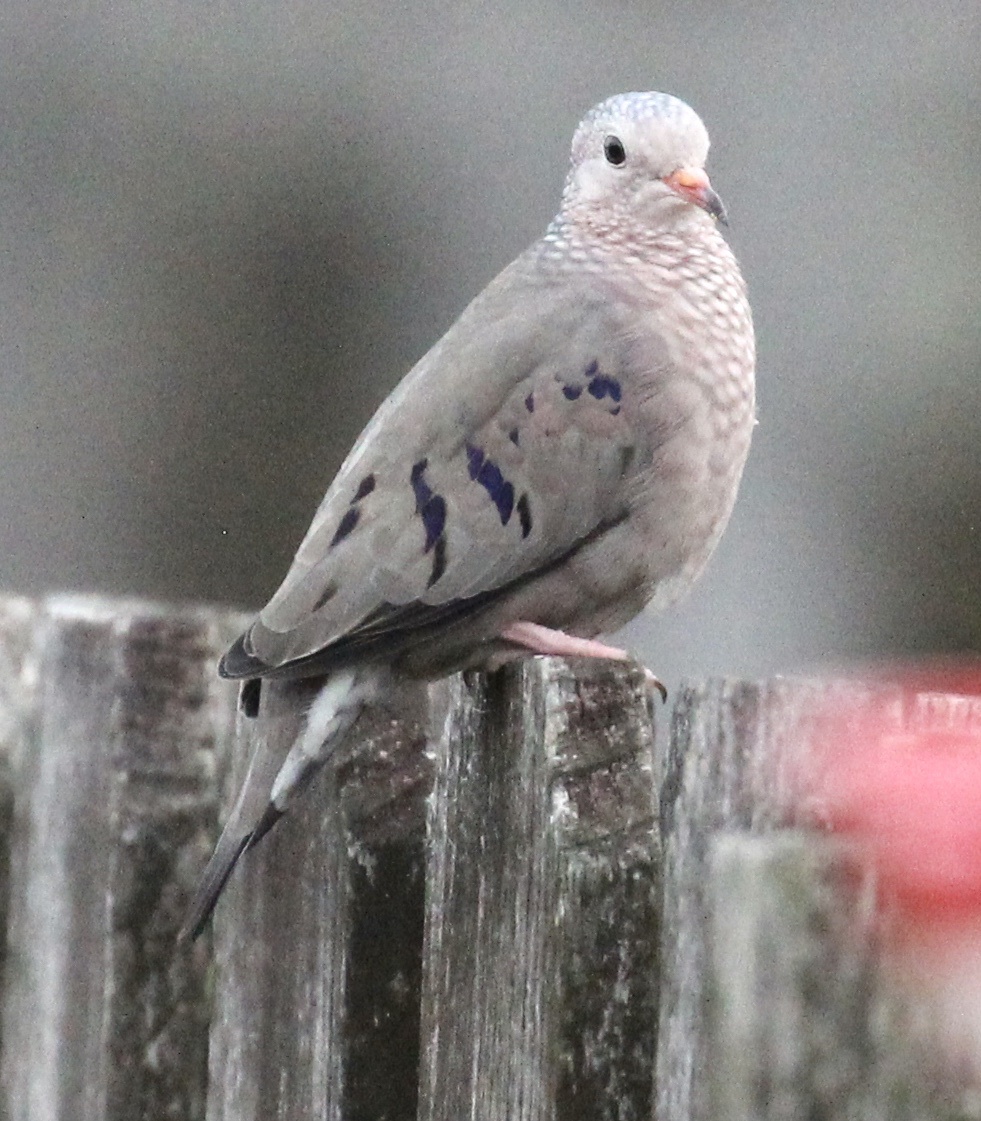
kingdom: Animalia
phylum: Chordata
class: Aves
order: Columbiformes
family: Columbidae
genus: Columbina
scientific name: Columbina passerina
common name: Common ground-dove
